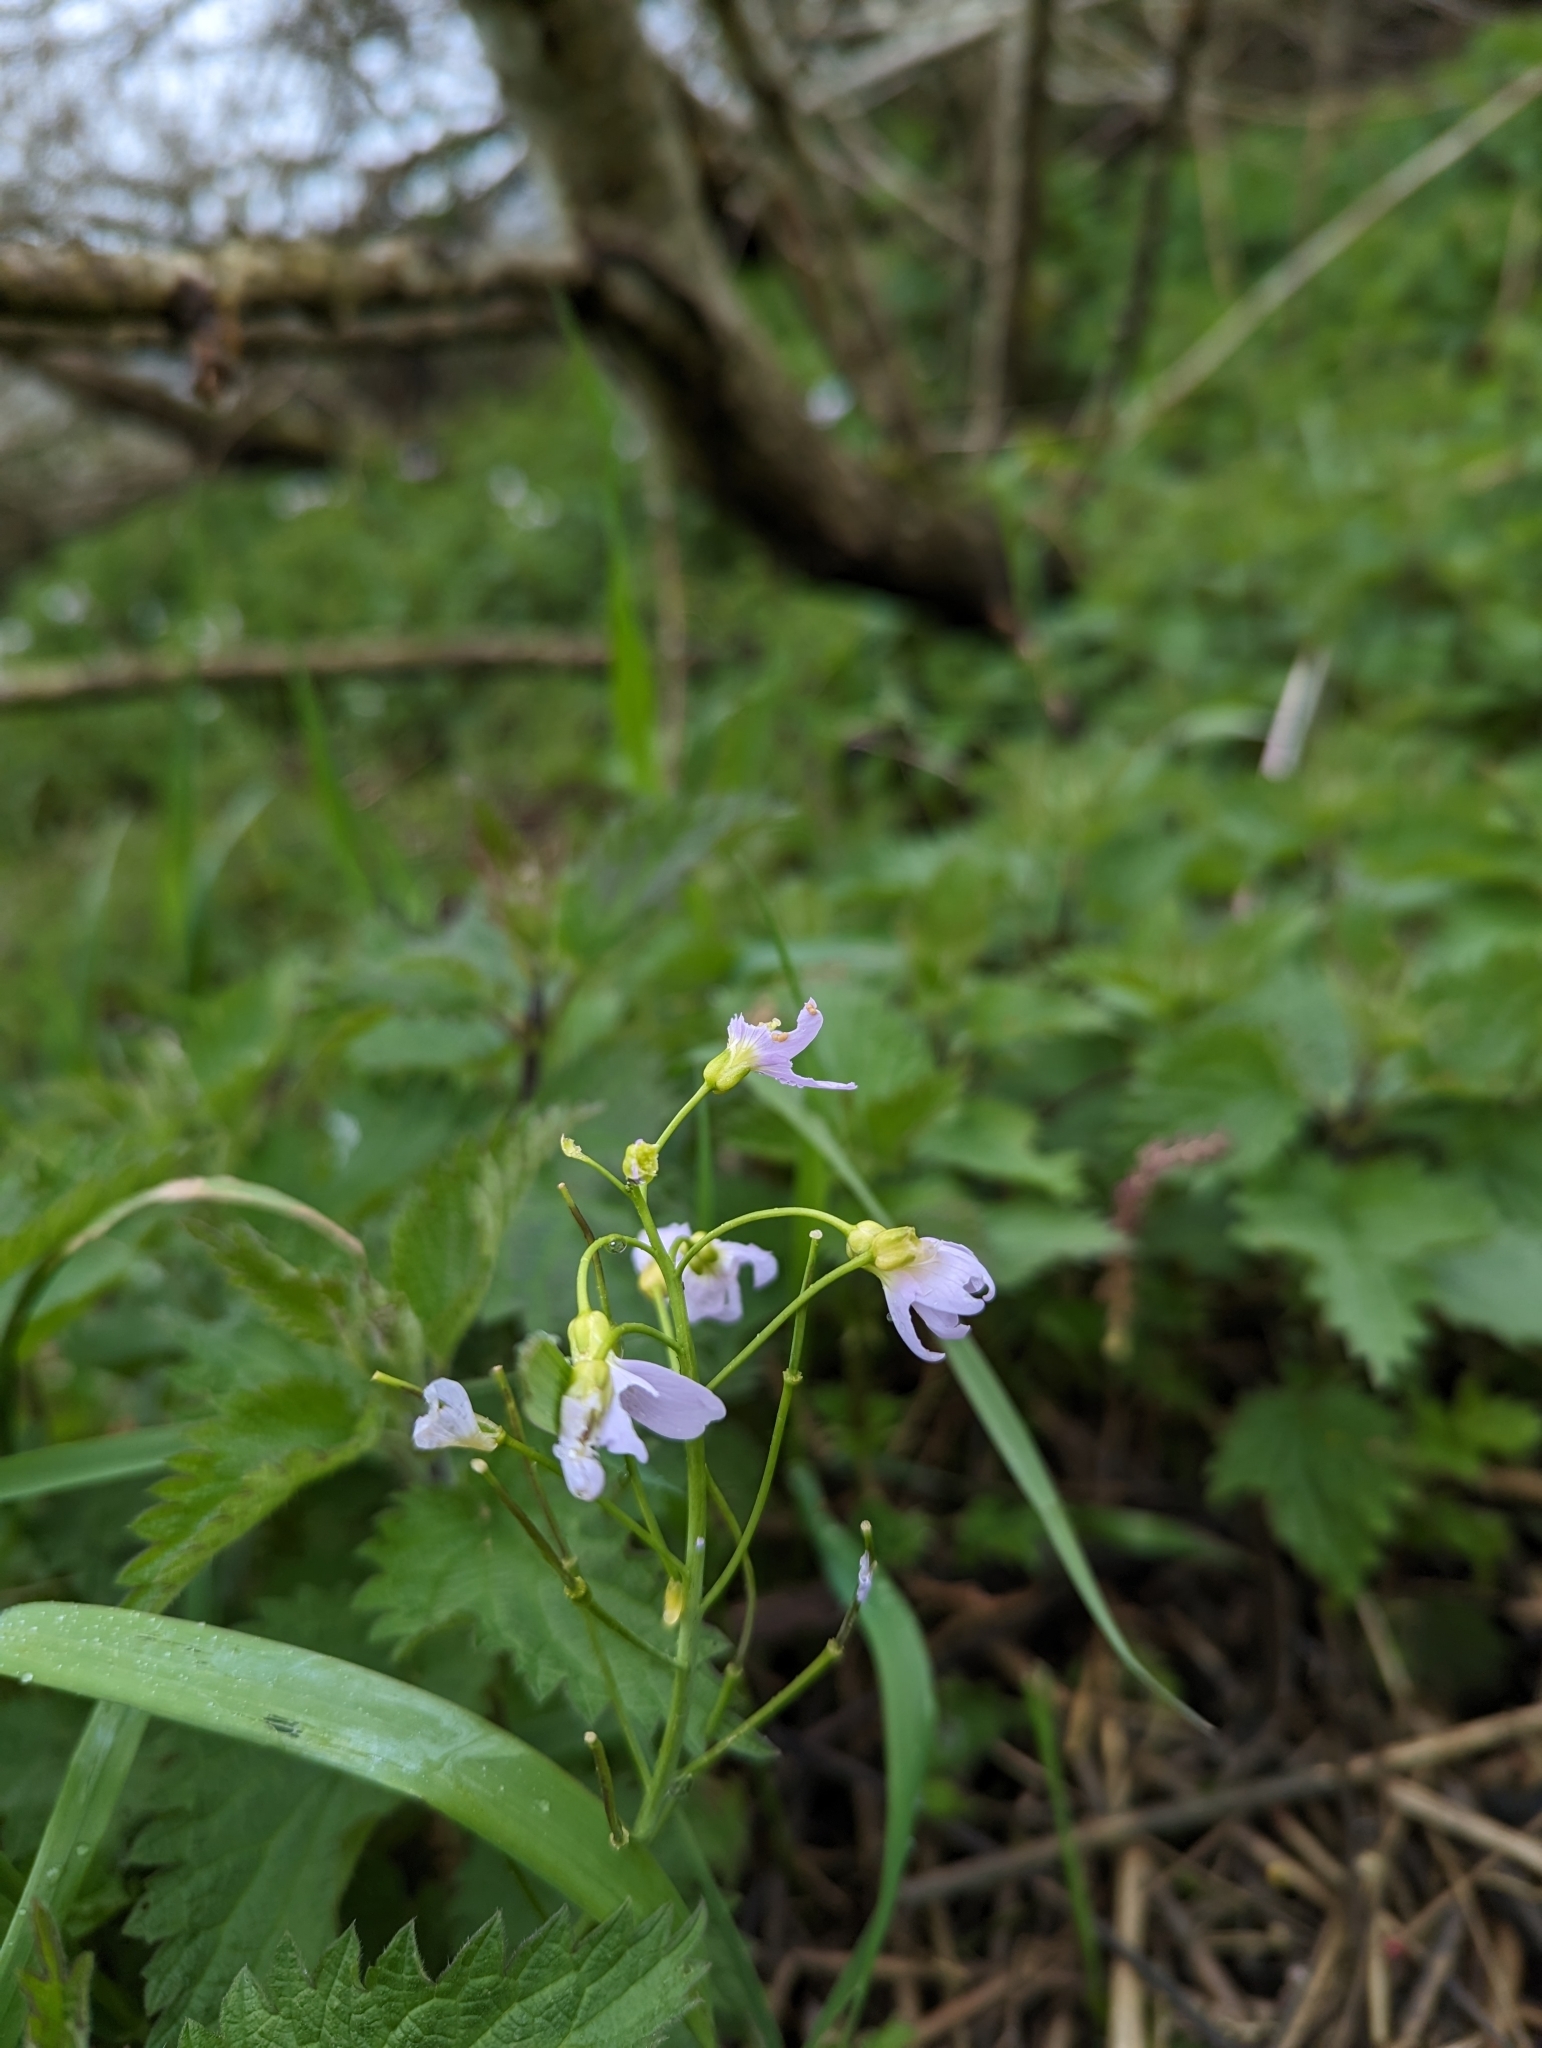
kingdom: Plantae
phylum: Tracheophyta
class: Magnoliopsida
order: Brassicales
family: Brassicaceae
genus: Cardamine
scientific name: Cardamine pratensis
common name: Cuckoo flower
